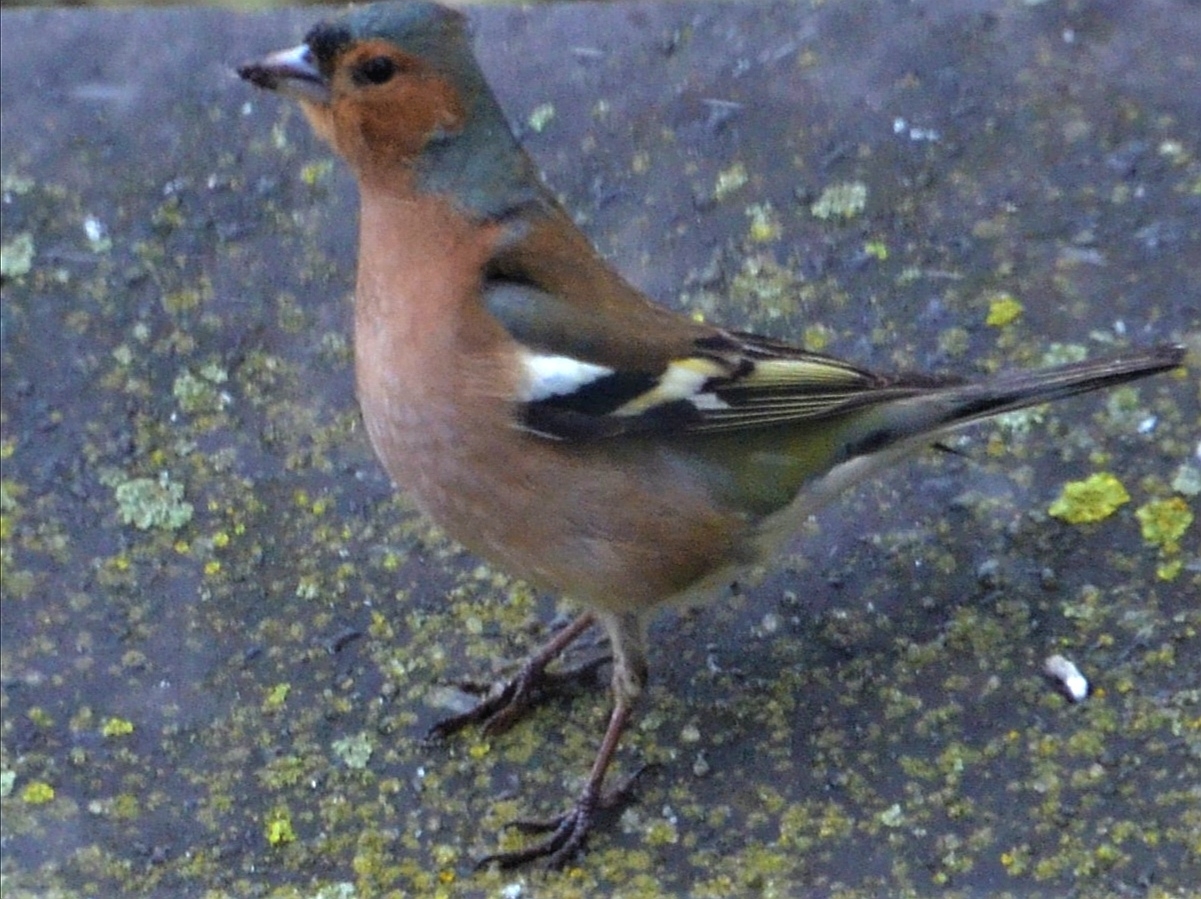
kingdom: Animalia
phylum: Chordata
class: Aves
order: Passeriformes
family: Fringillidae
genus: Fringilla
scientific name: Fringilla coelebs
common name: Common chaffinch
